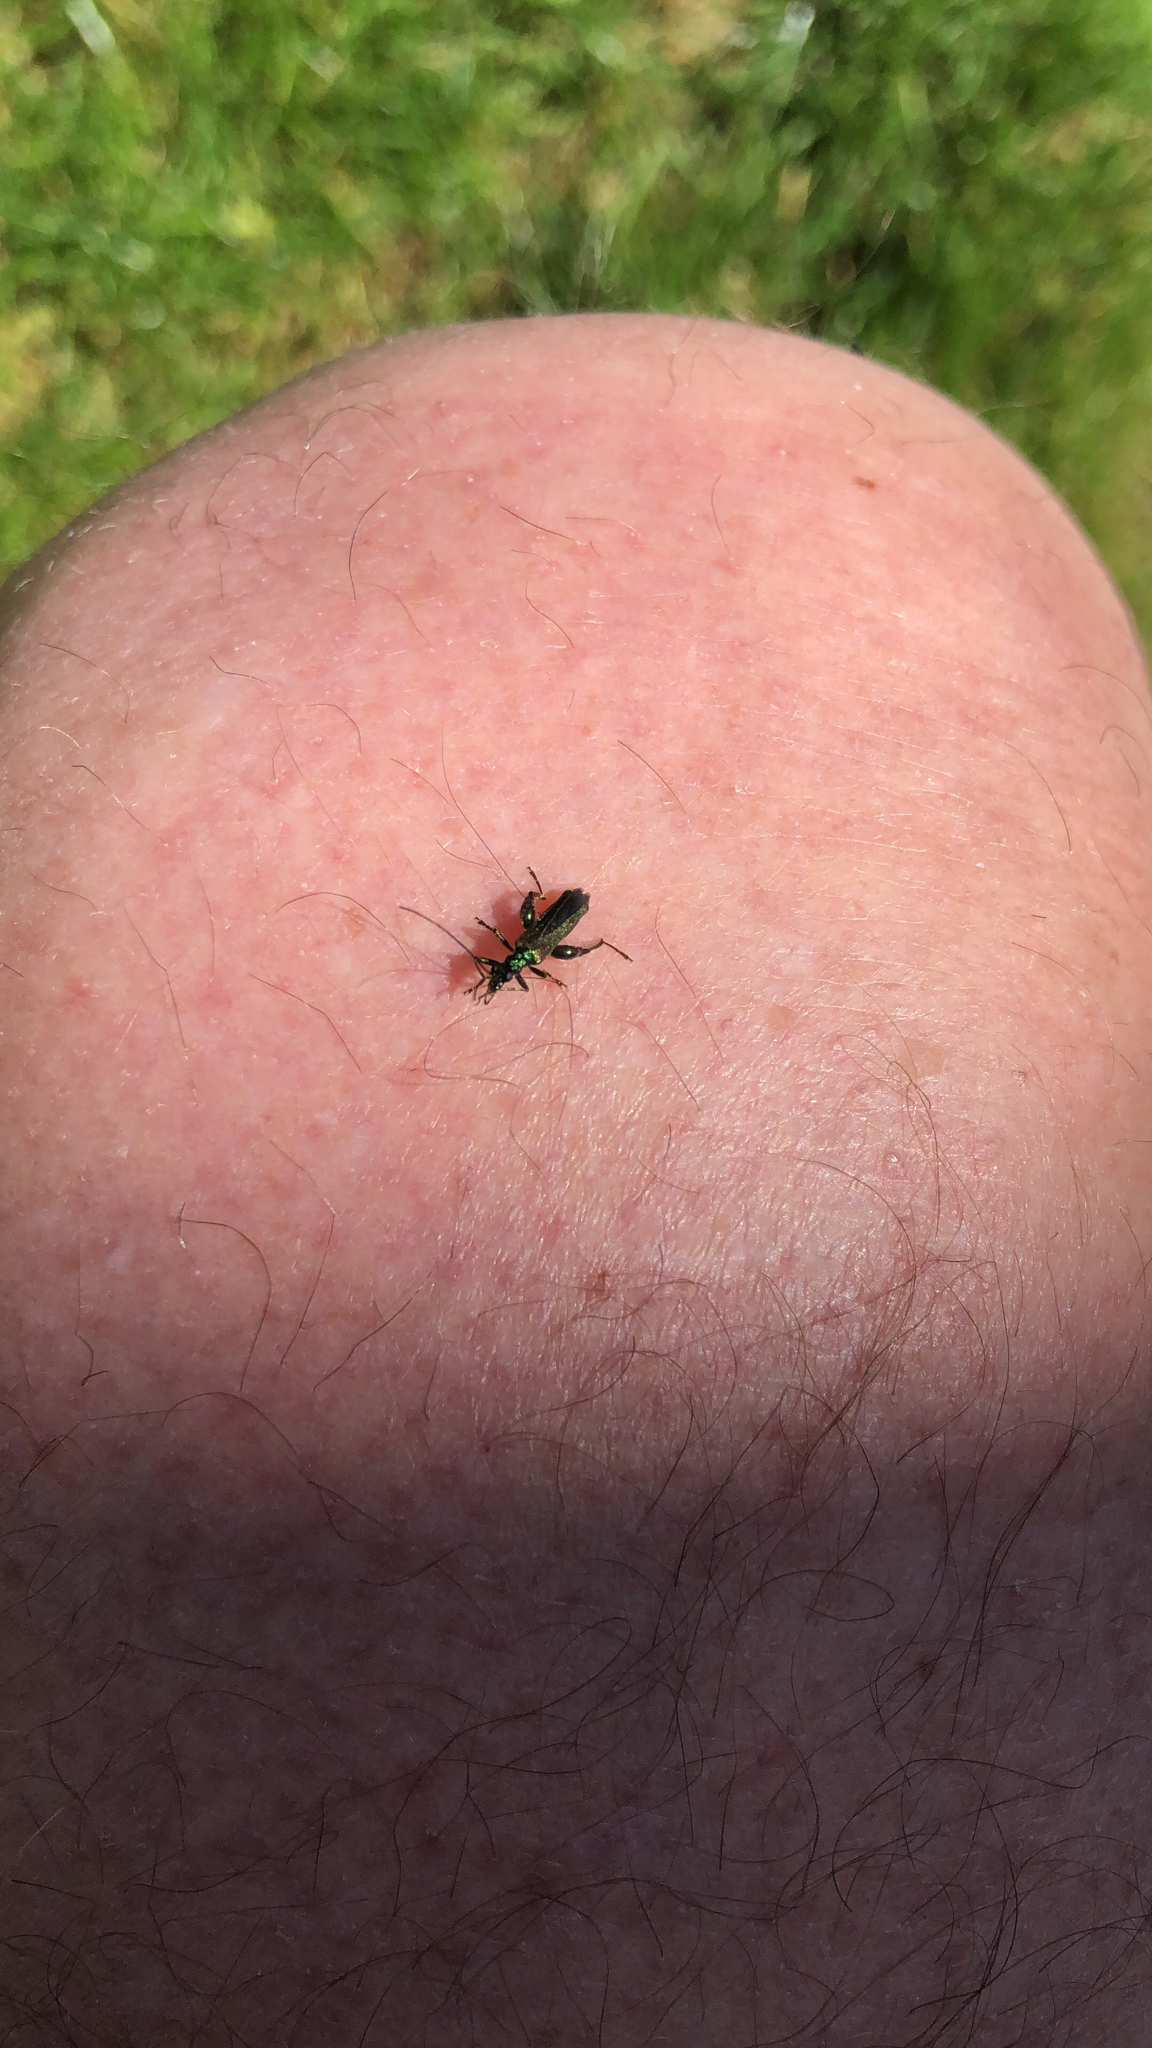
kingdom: Animalia
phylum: Arthropoda
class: Insecta
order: Coleoptera
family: Oedemeridae
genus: Oedemera
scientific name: Oedemera nobilis
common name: Swollen-thighed beetle
